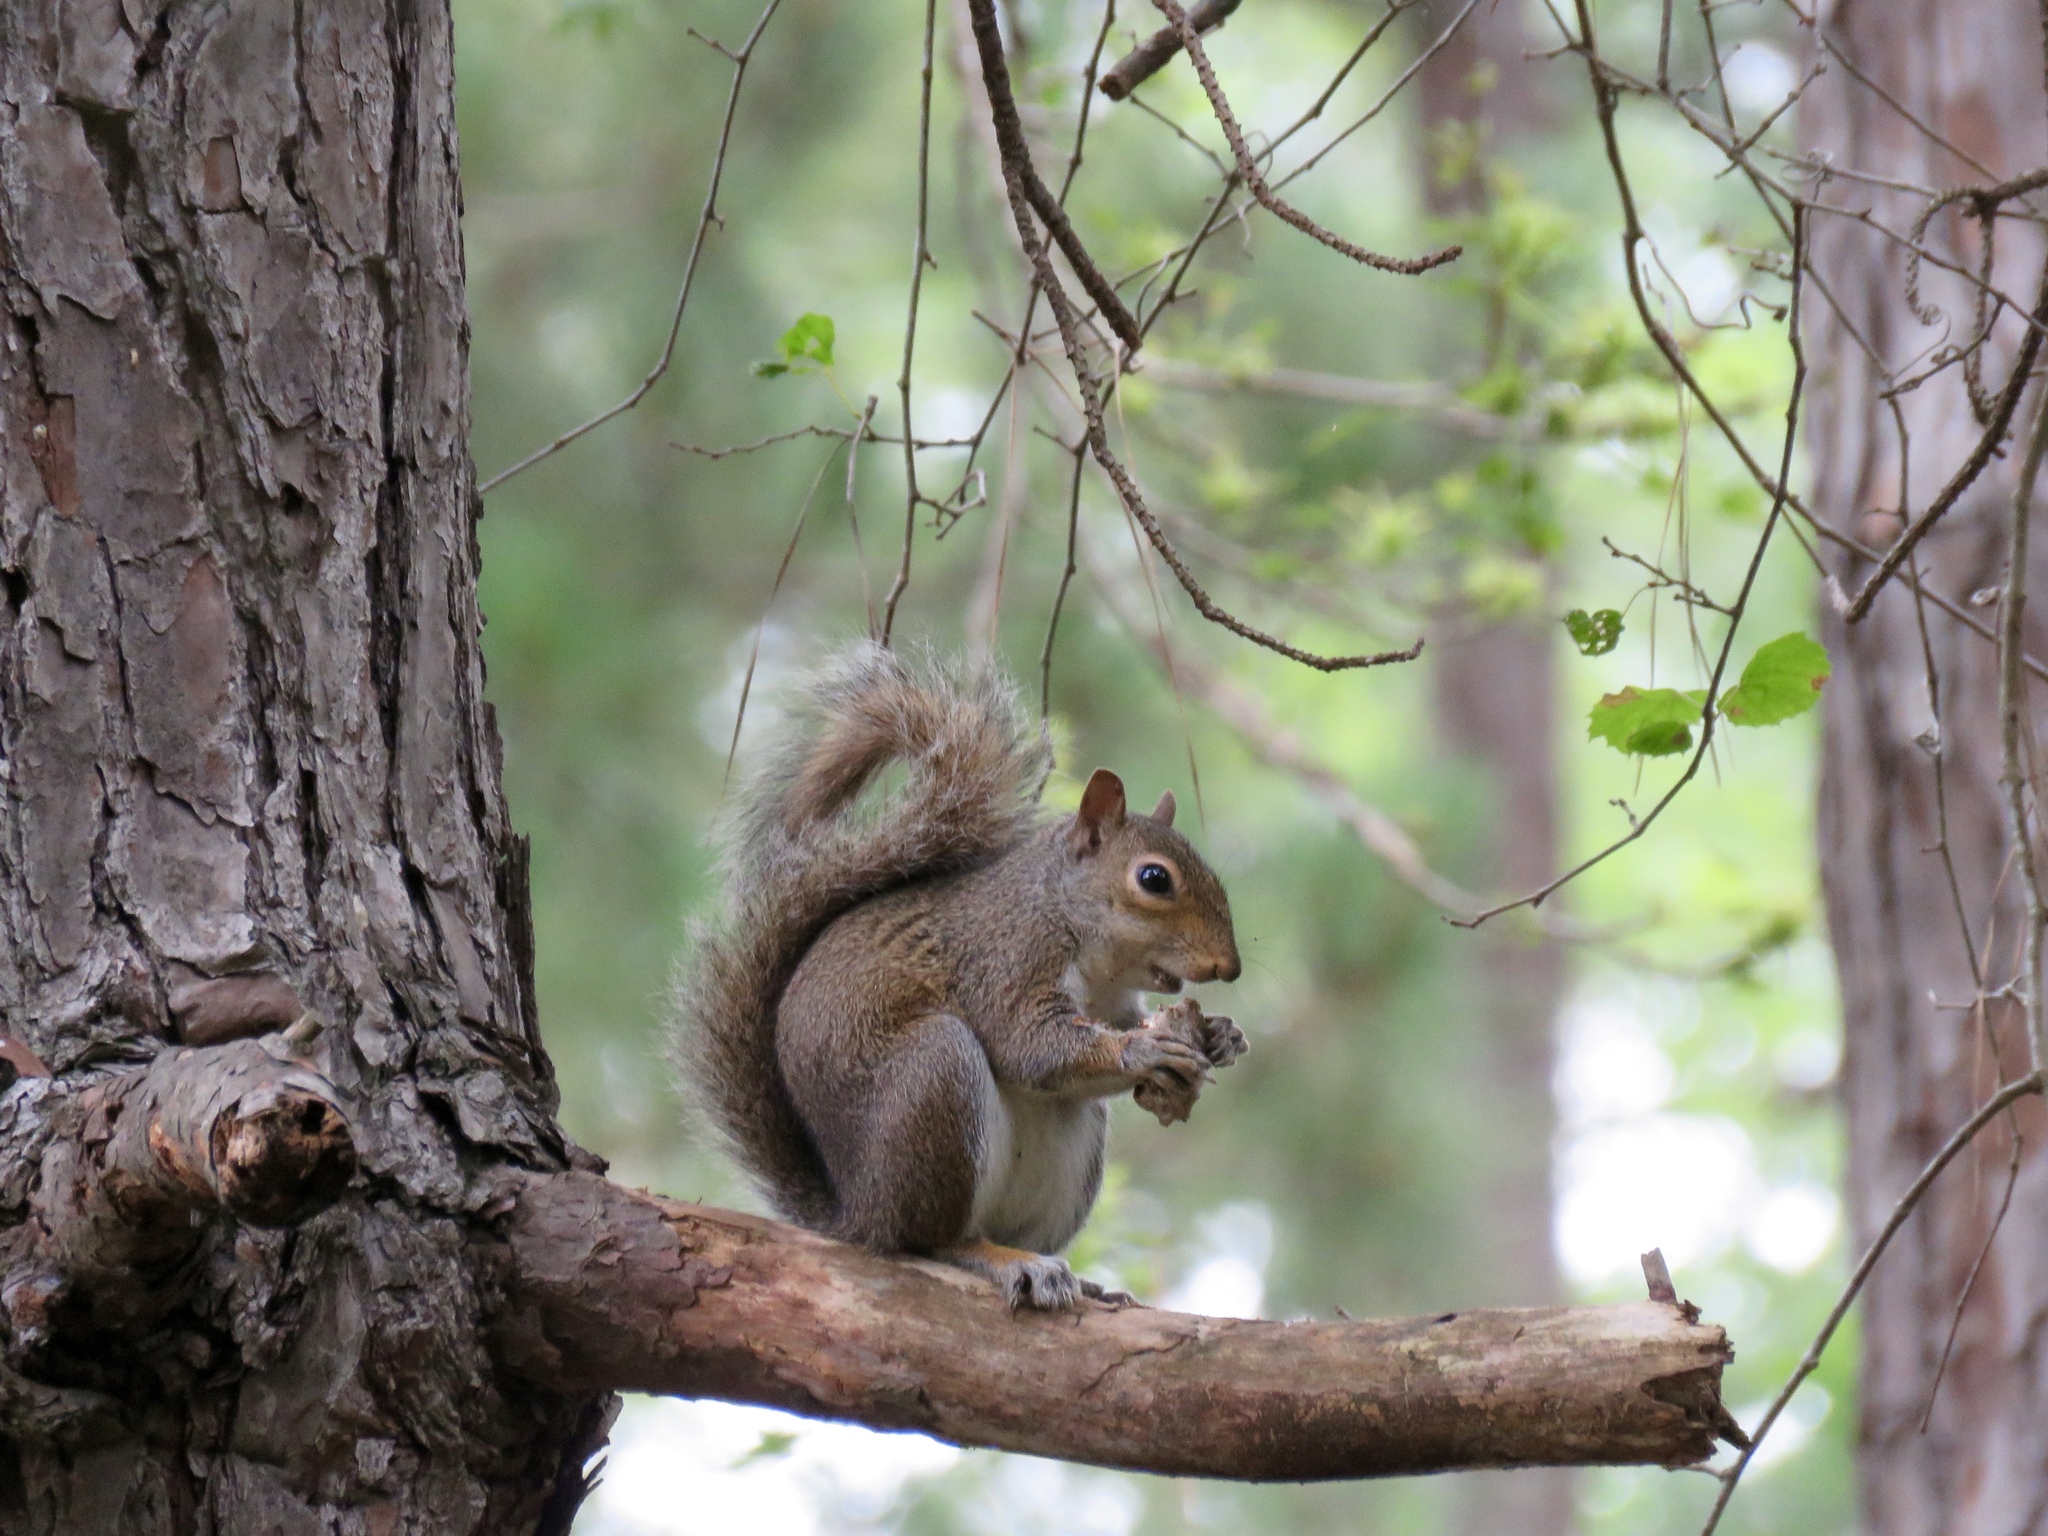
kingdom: Animalia
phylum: Chordata
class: Mammalia
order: Rodentia
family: Sciuridae
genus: Sciurus
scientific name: Sciurus carolinensis
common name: Eastern gray squirrel
